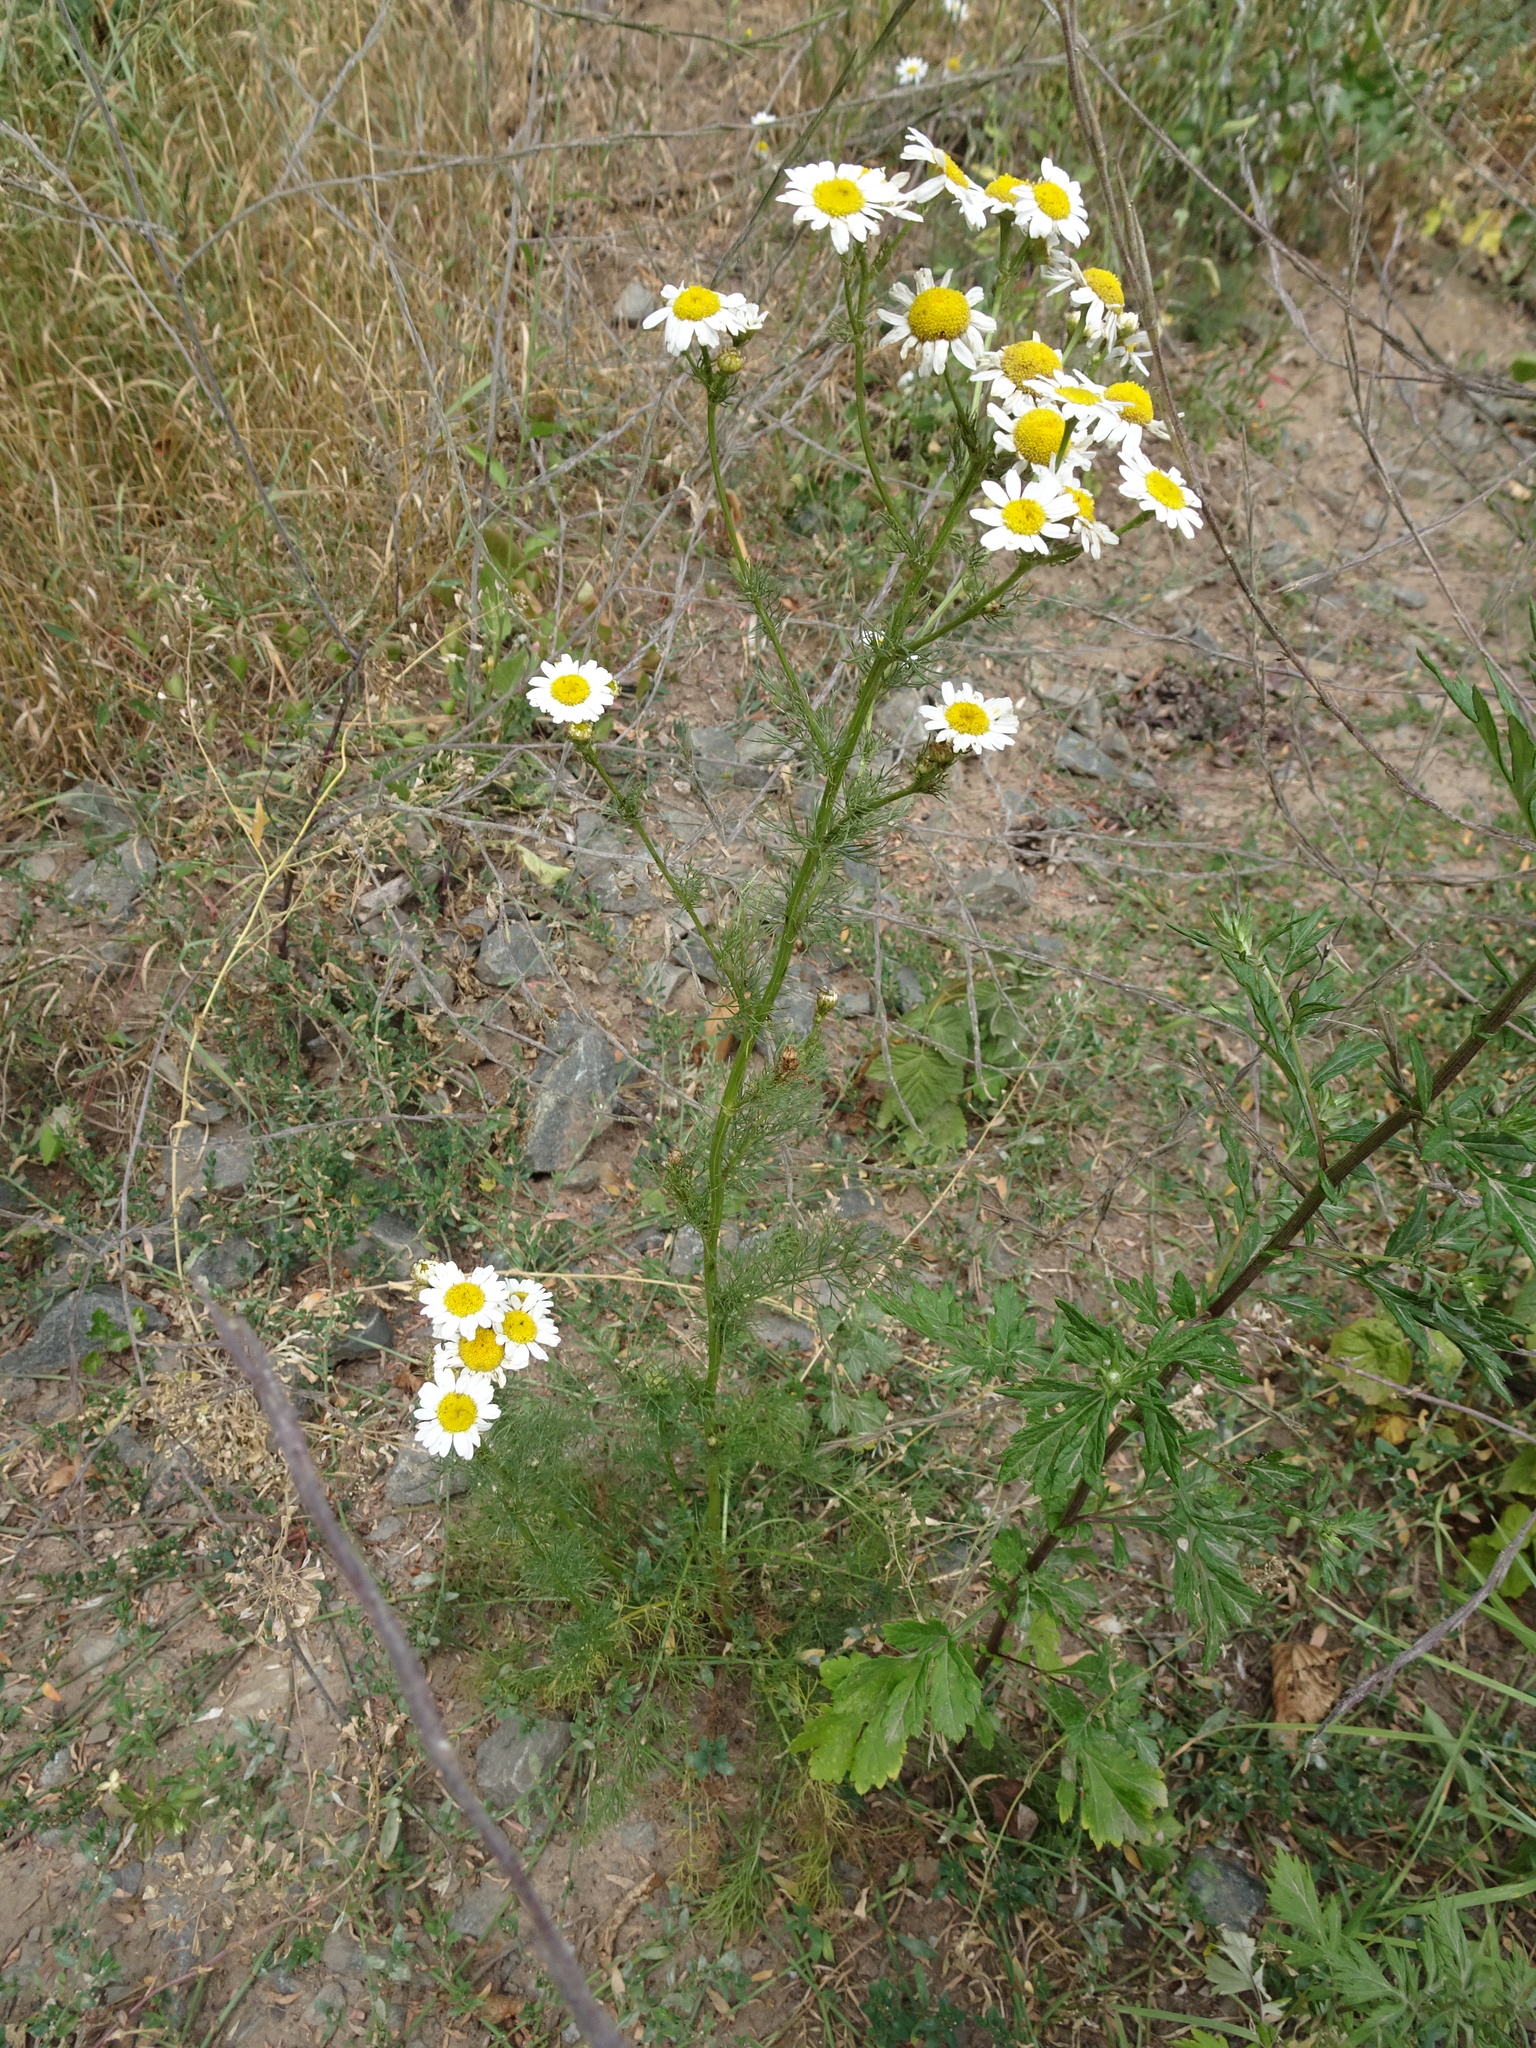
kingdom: Plantae
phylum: Tracheophyta
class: Magnoliopsida
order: Asterales
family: Asteraceae
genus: Tripleurospermum
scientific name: Tripleurospermum inodorum
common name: Scentless mayweed
